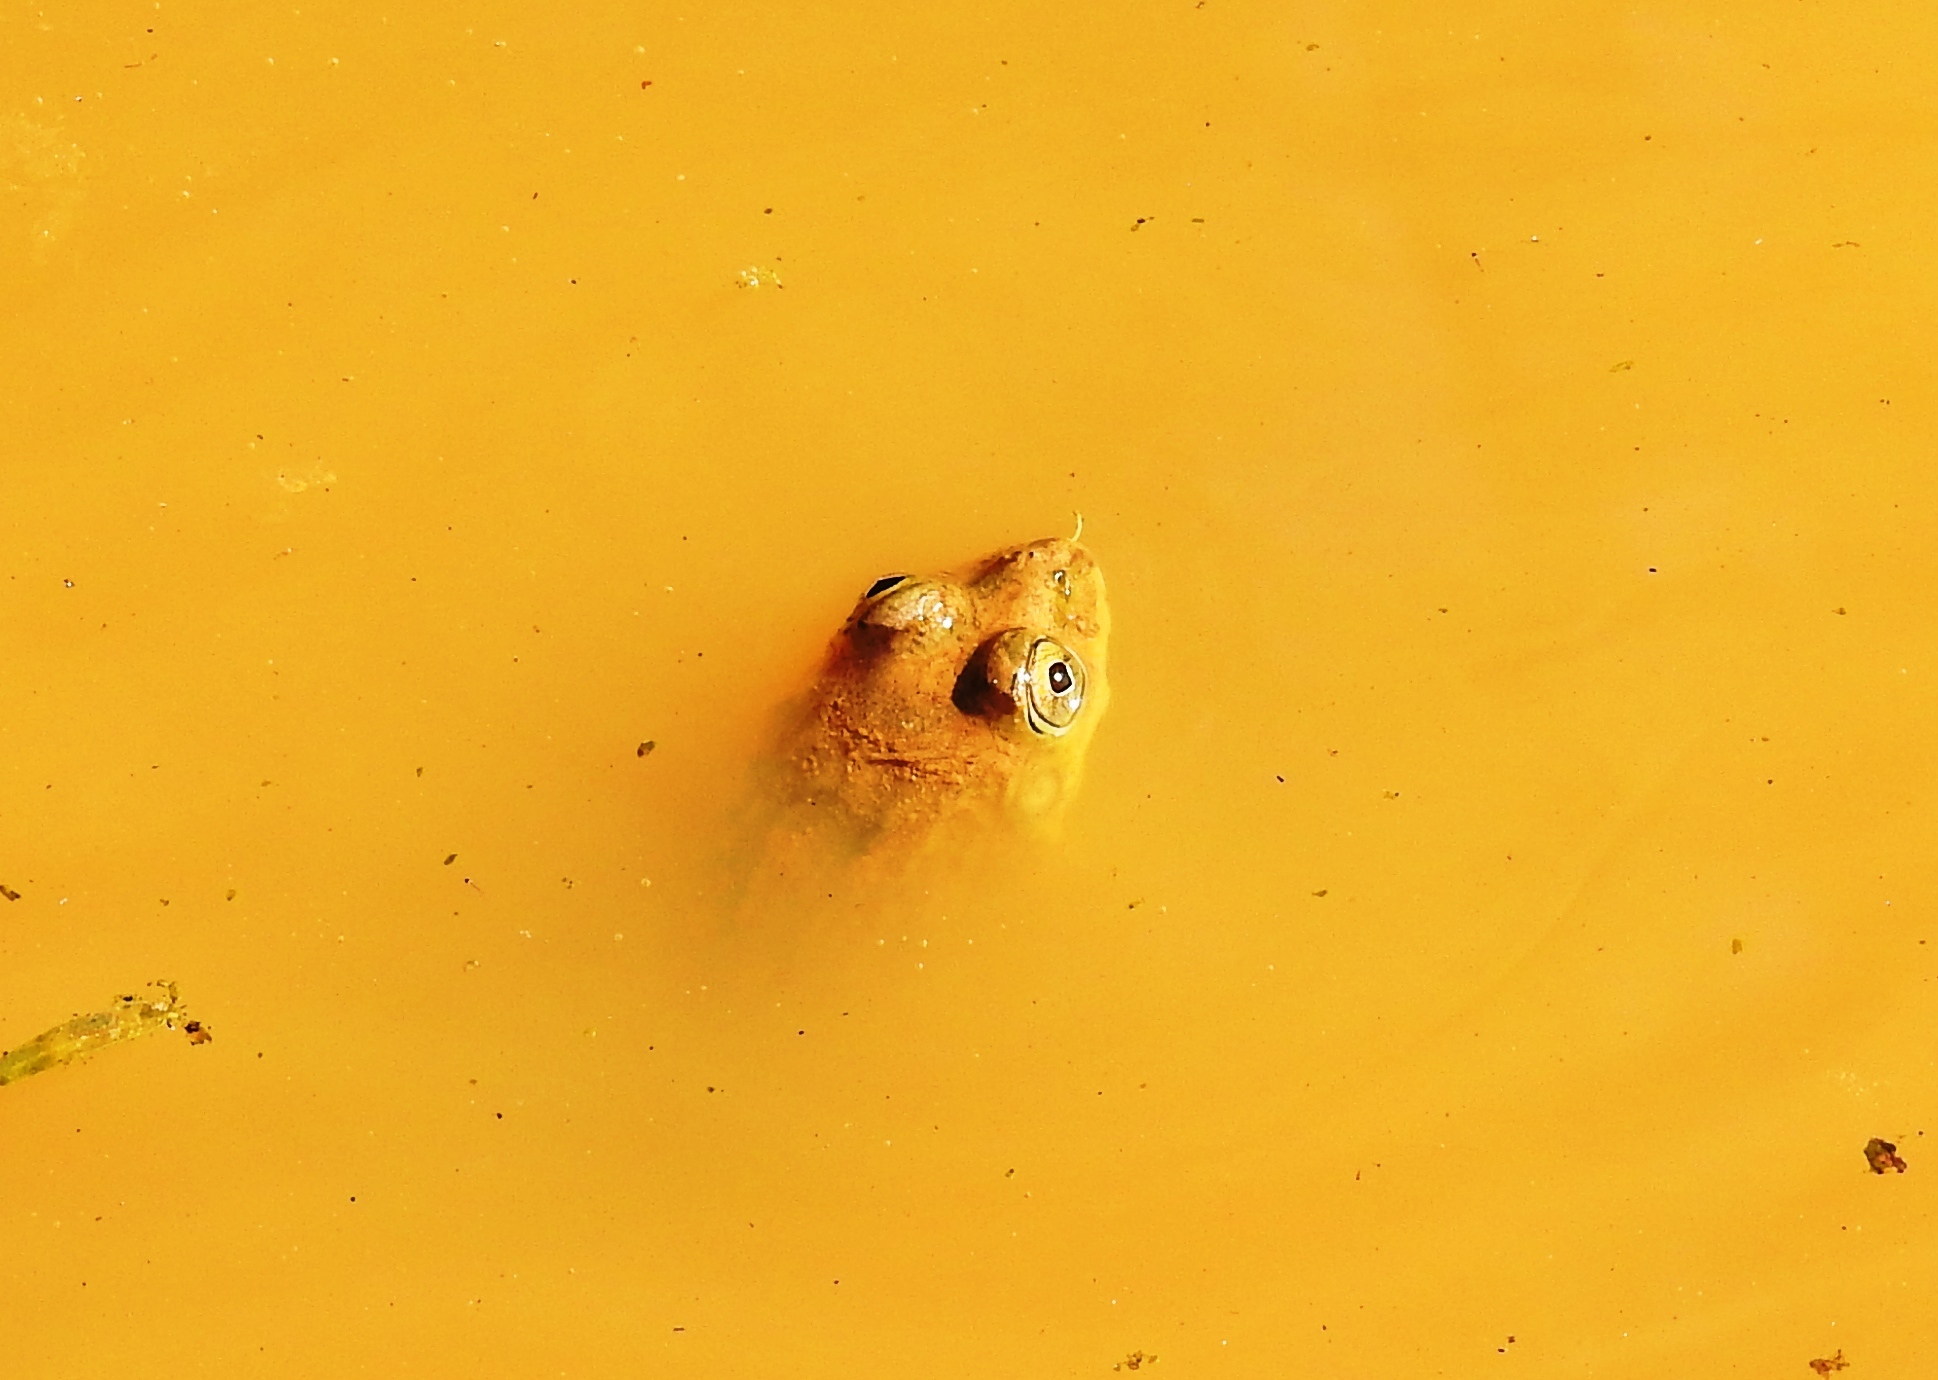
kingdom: Animalia
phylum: Chordata
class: Amphibia
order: Anura
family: Dicroglossidae
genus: Euphlyctis
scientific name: Euphlyctis cyanophlyctis
